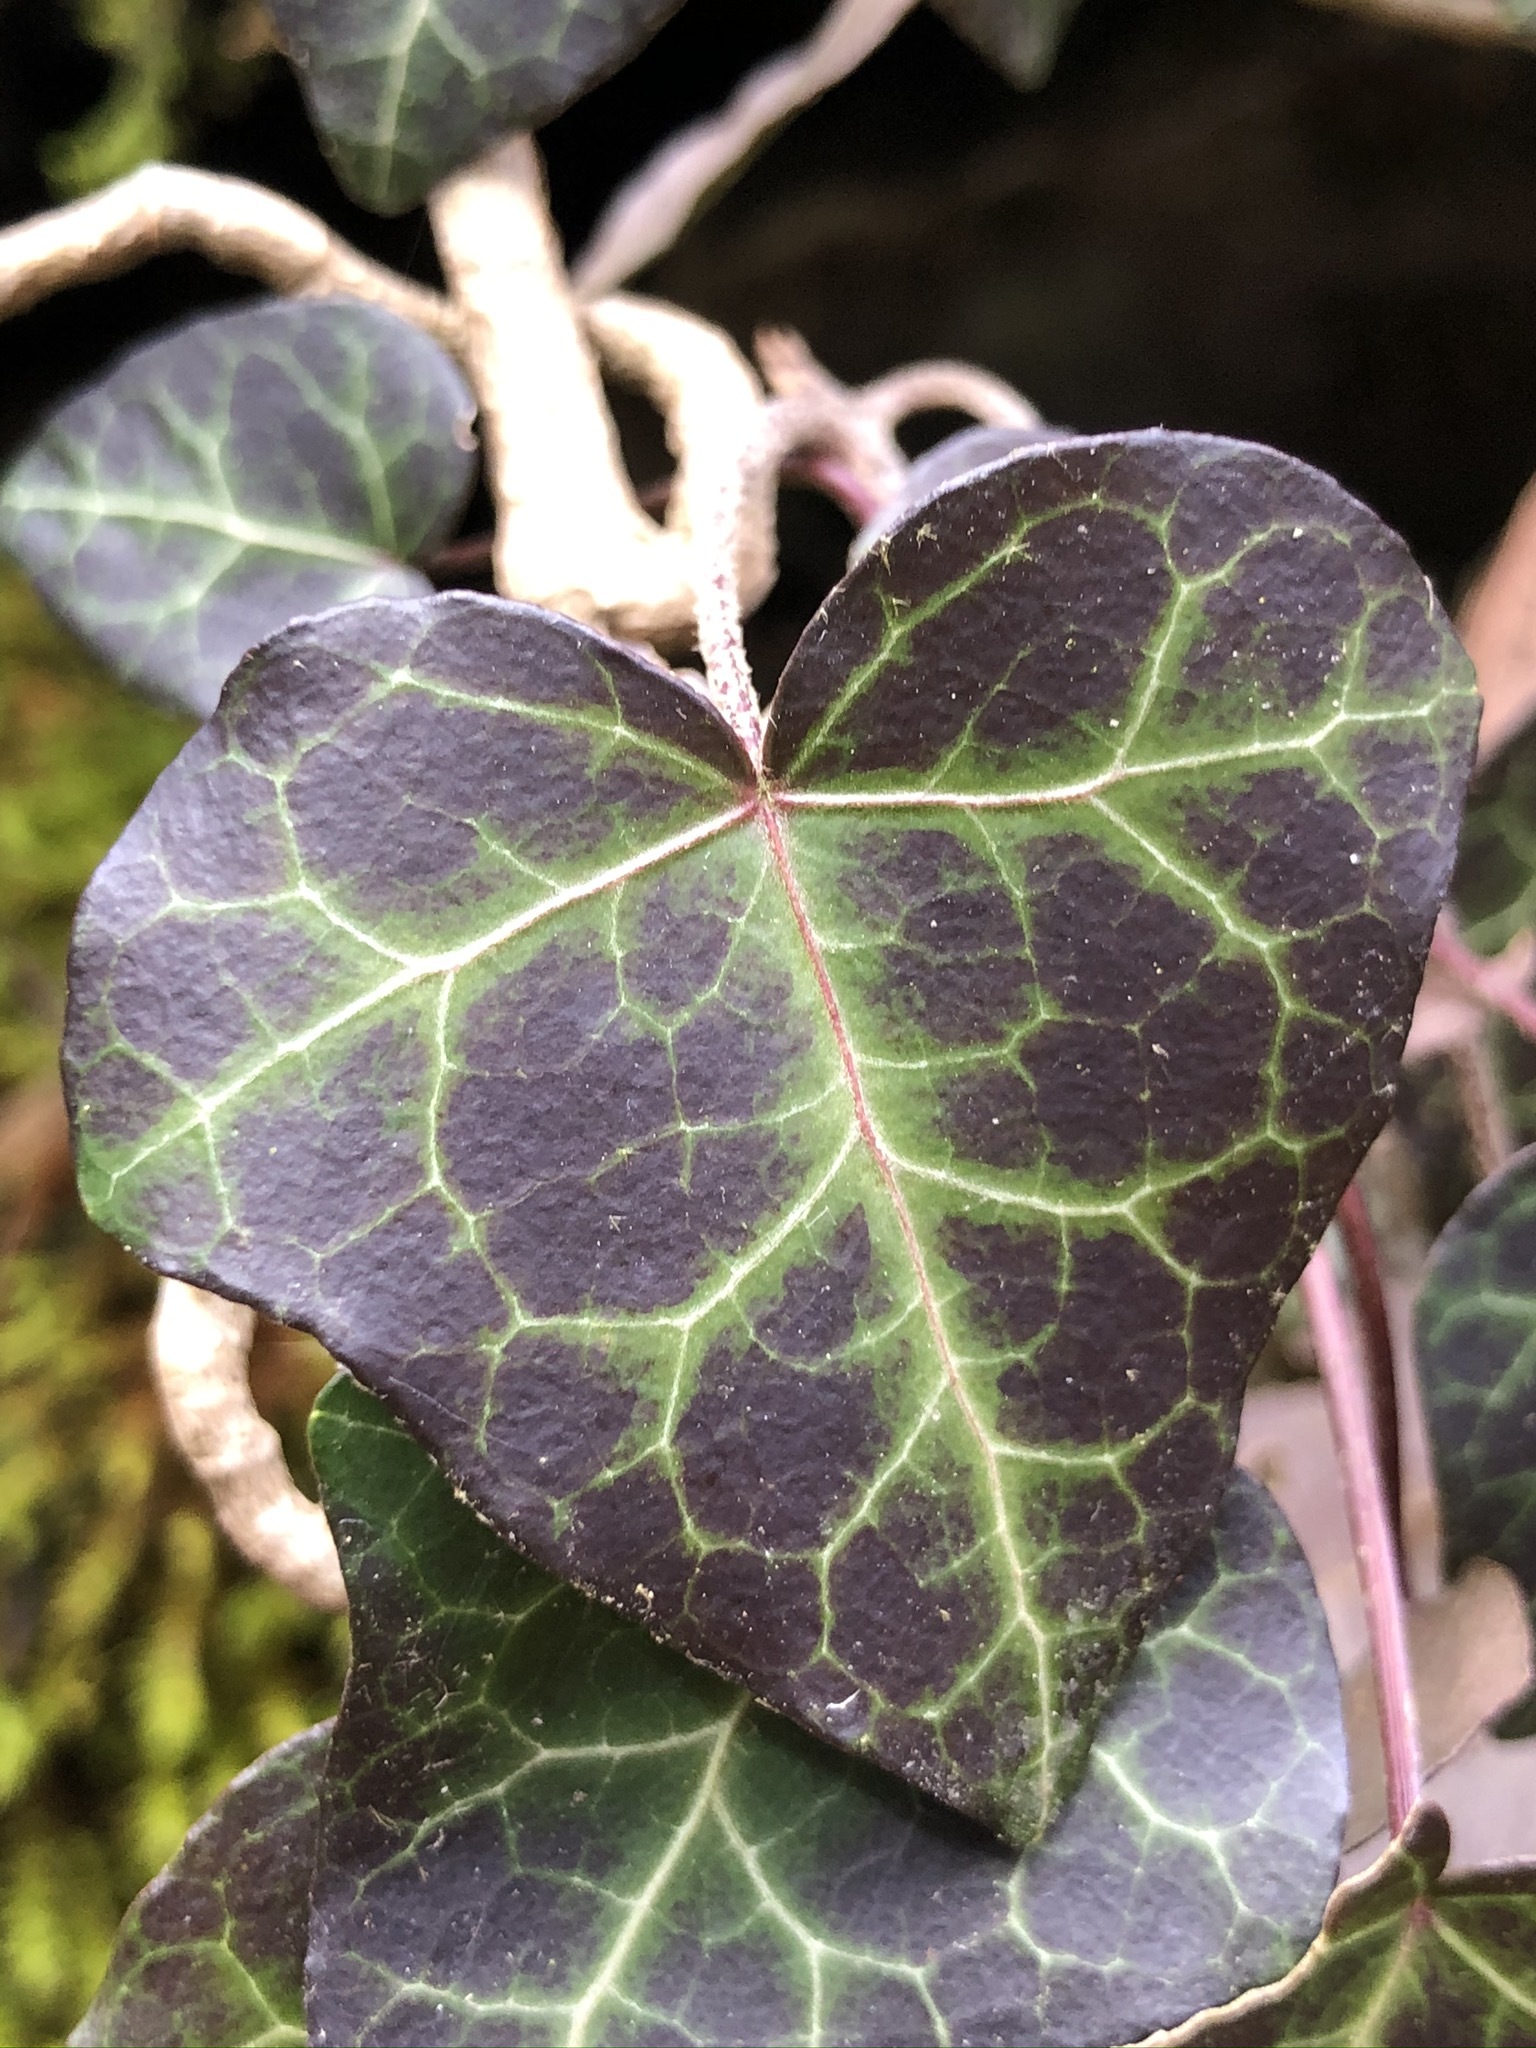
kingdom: Plantae
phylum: Tracheophyta
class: Magnoliopsida
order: Apiales
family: Araliaceae
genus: Hedera
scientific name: Hedera helix
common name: Ivy
